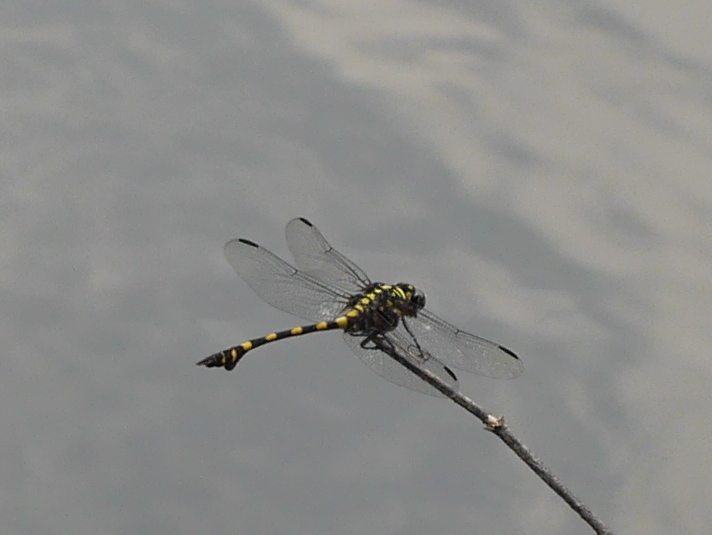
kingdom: Animalia
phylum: Arthropoda
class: Insecta
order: Odonata
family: Gomphidae
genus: Ictinogomphus
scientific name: Ictinogomphus decoratus
